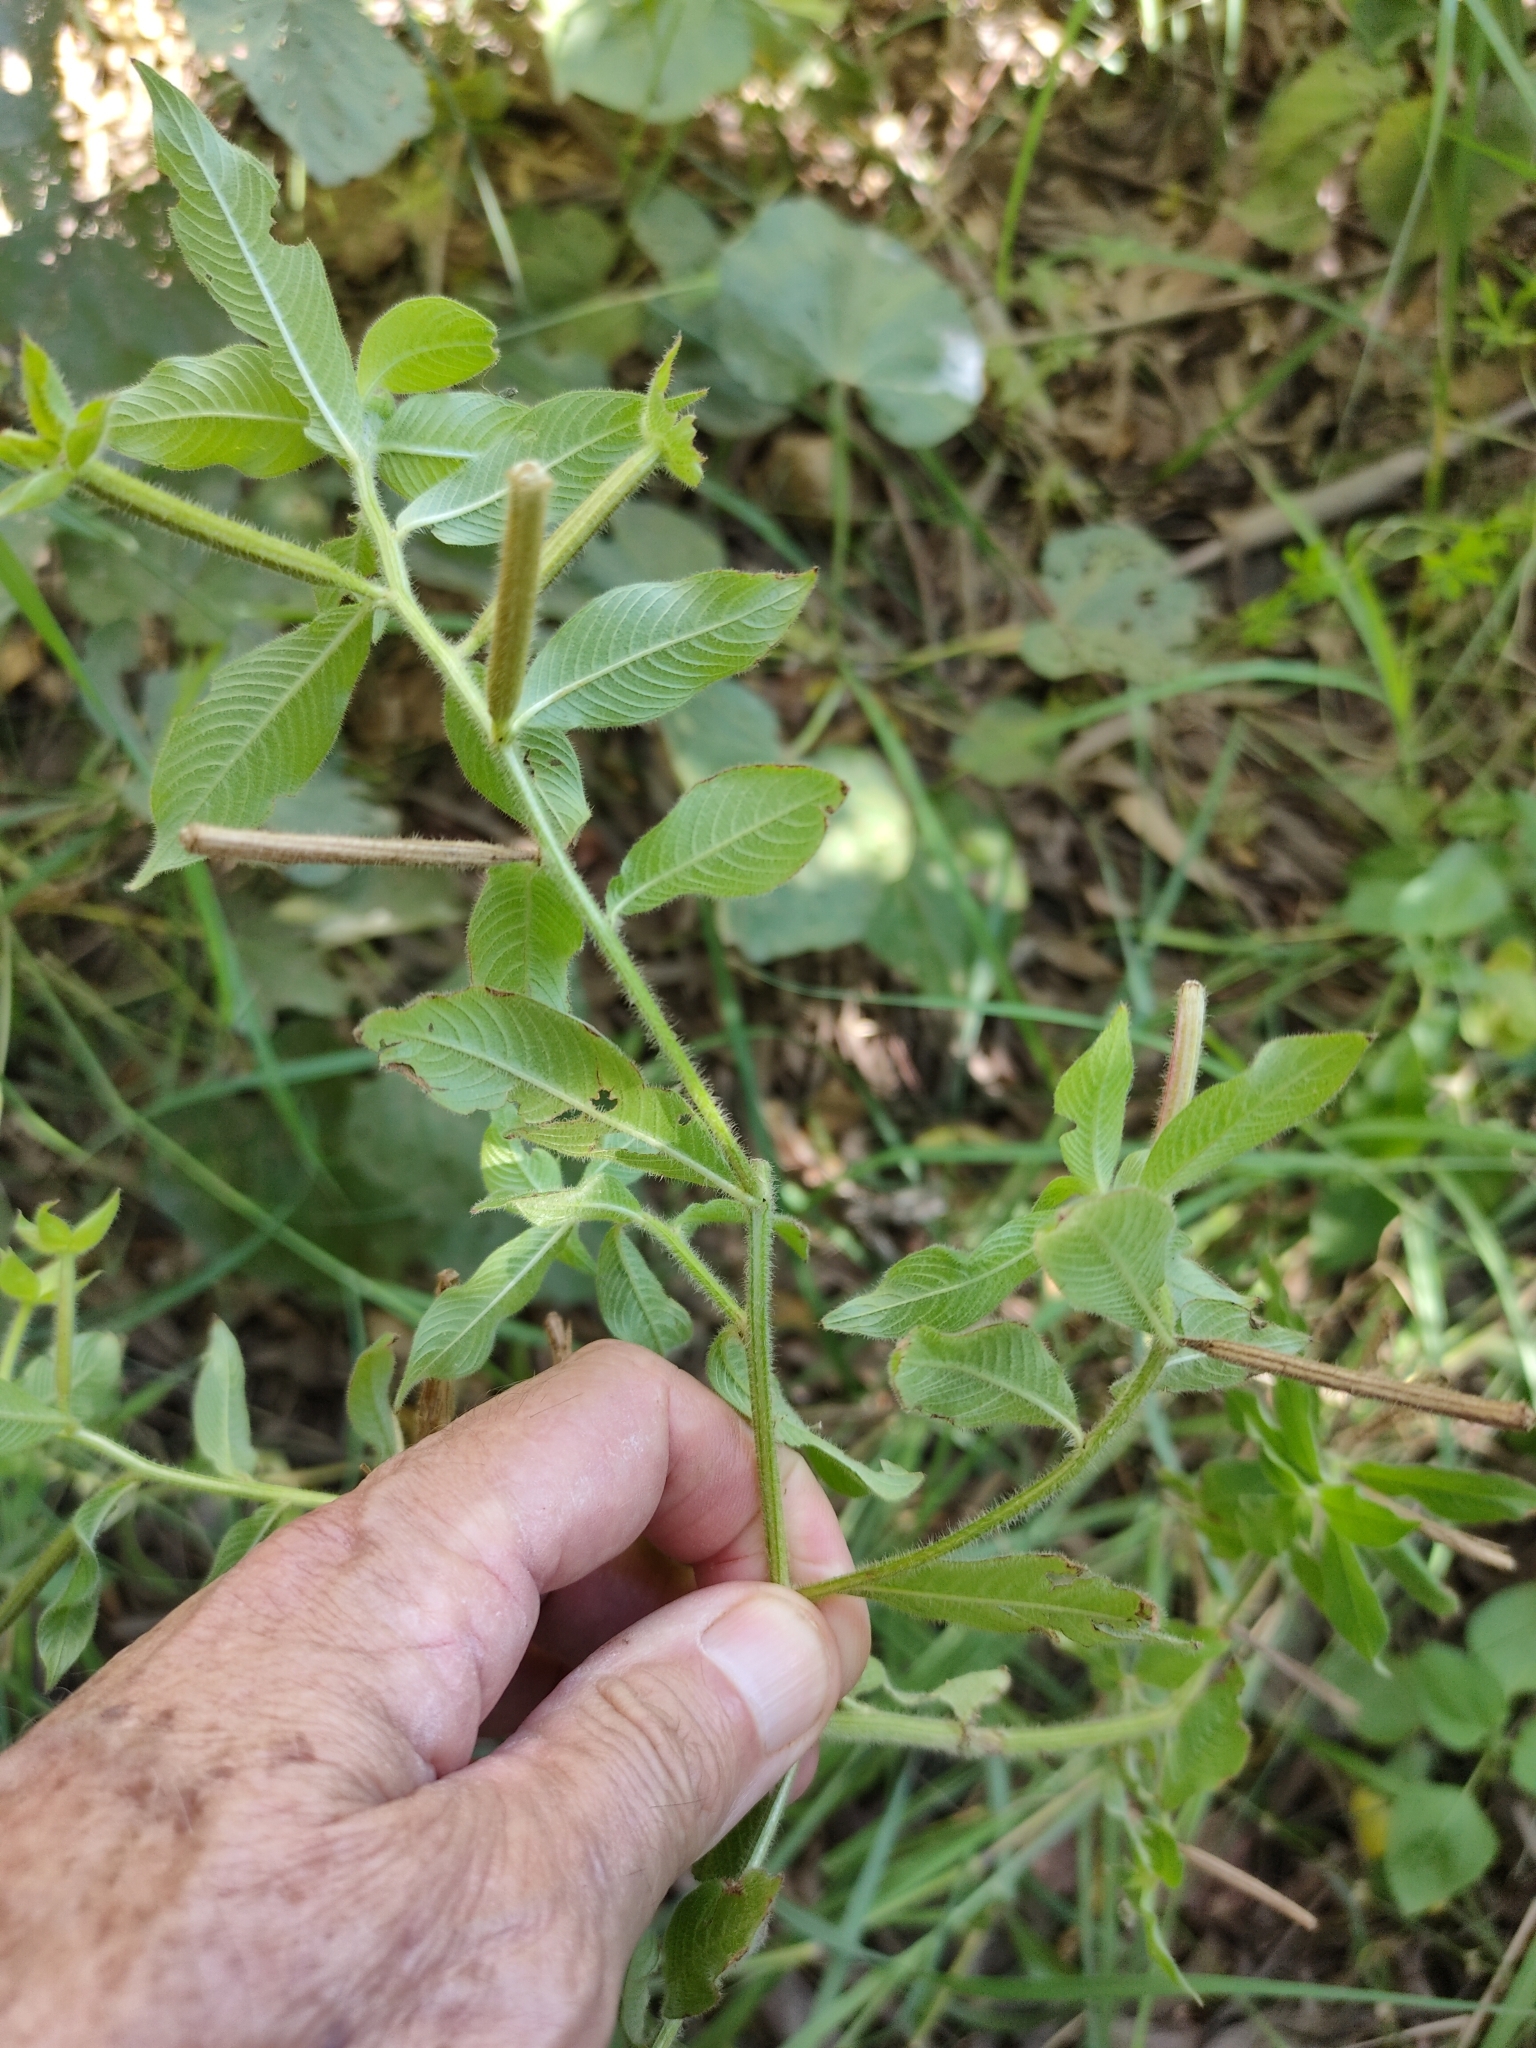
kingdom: Plantae
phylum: Tracheophyta
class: Magnoliopsida
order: Myrtales
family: Onagraceae
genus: Ludwigia
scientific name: Ludwigia octovalvis
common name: Water-primrose
